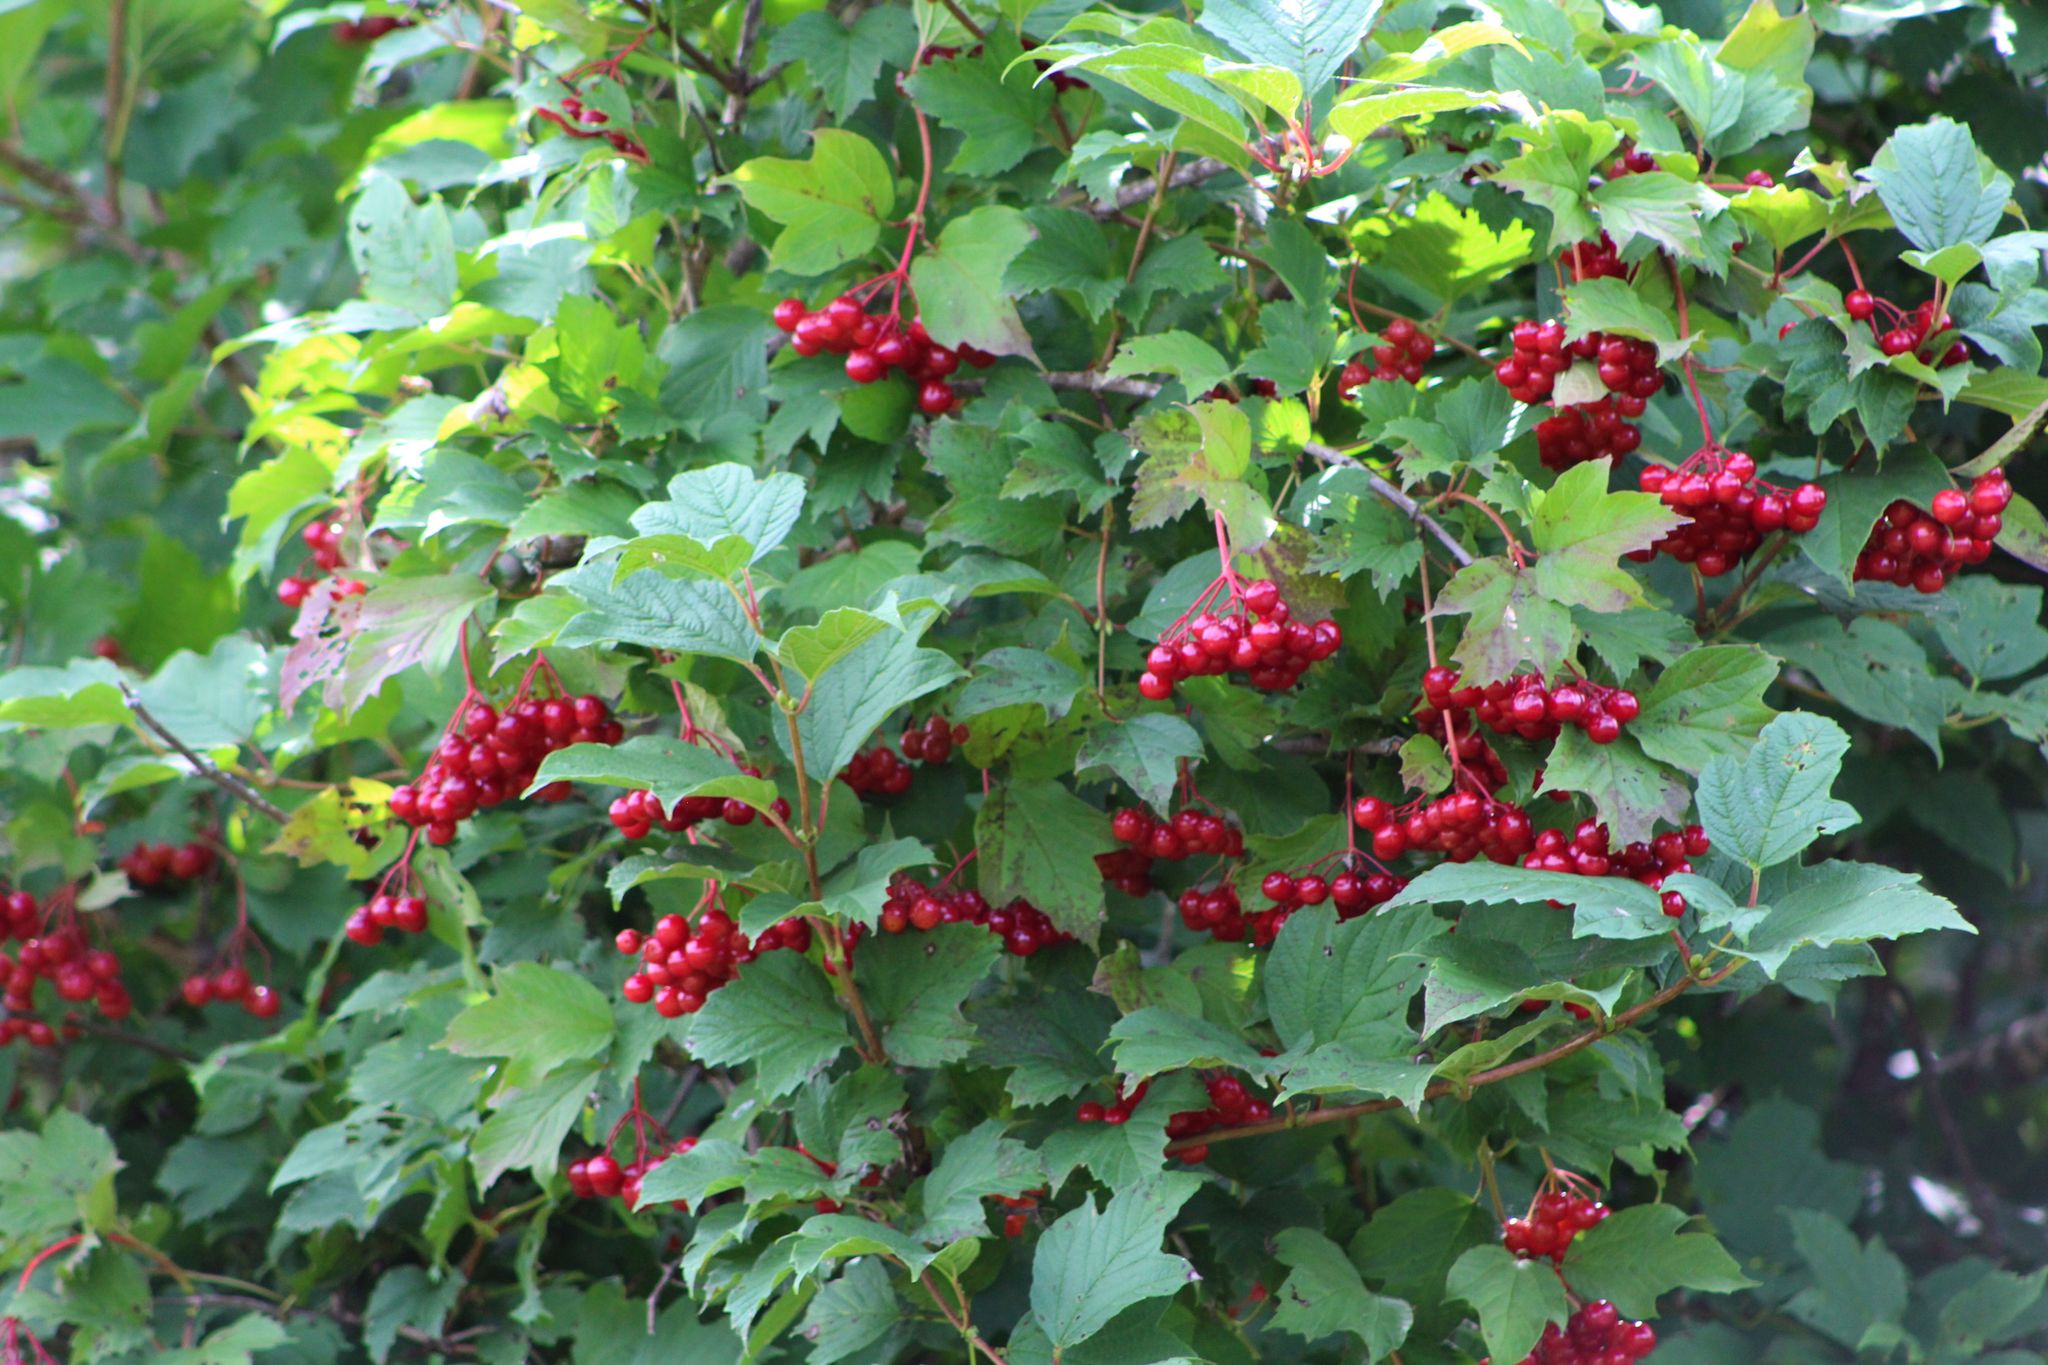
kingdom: Plantae
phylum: Tracheophyta
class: Magnoliopsida
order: Dipsacales
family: Viburnaceae
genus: Viburnum
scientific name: Viburnum opulus
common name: Guelder-rose
